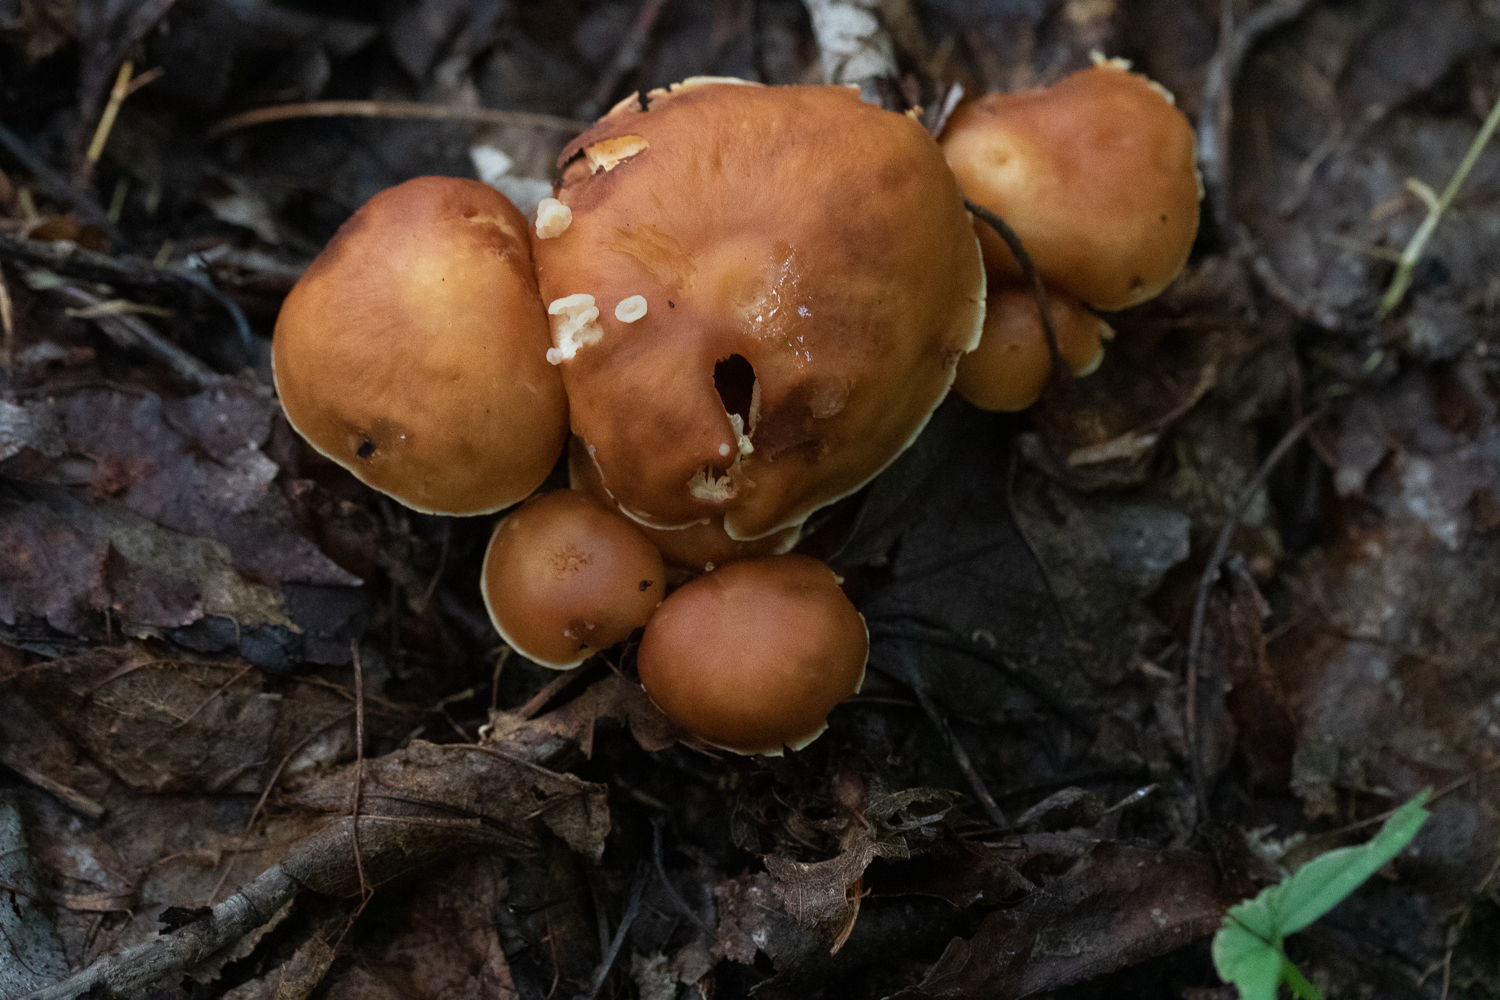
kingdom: Fungi
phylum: Basidiomycota
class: Tremellomycetes
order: Filobasidiales
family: Filobasidiaceae
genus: Syzygospora
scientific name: Syzygospora mycetophila
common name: Collybia clouds
